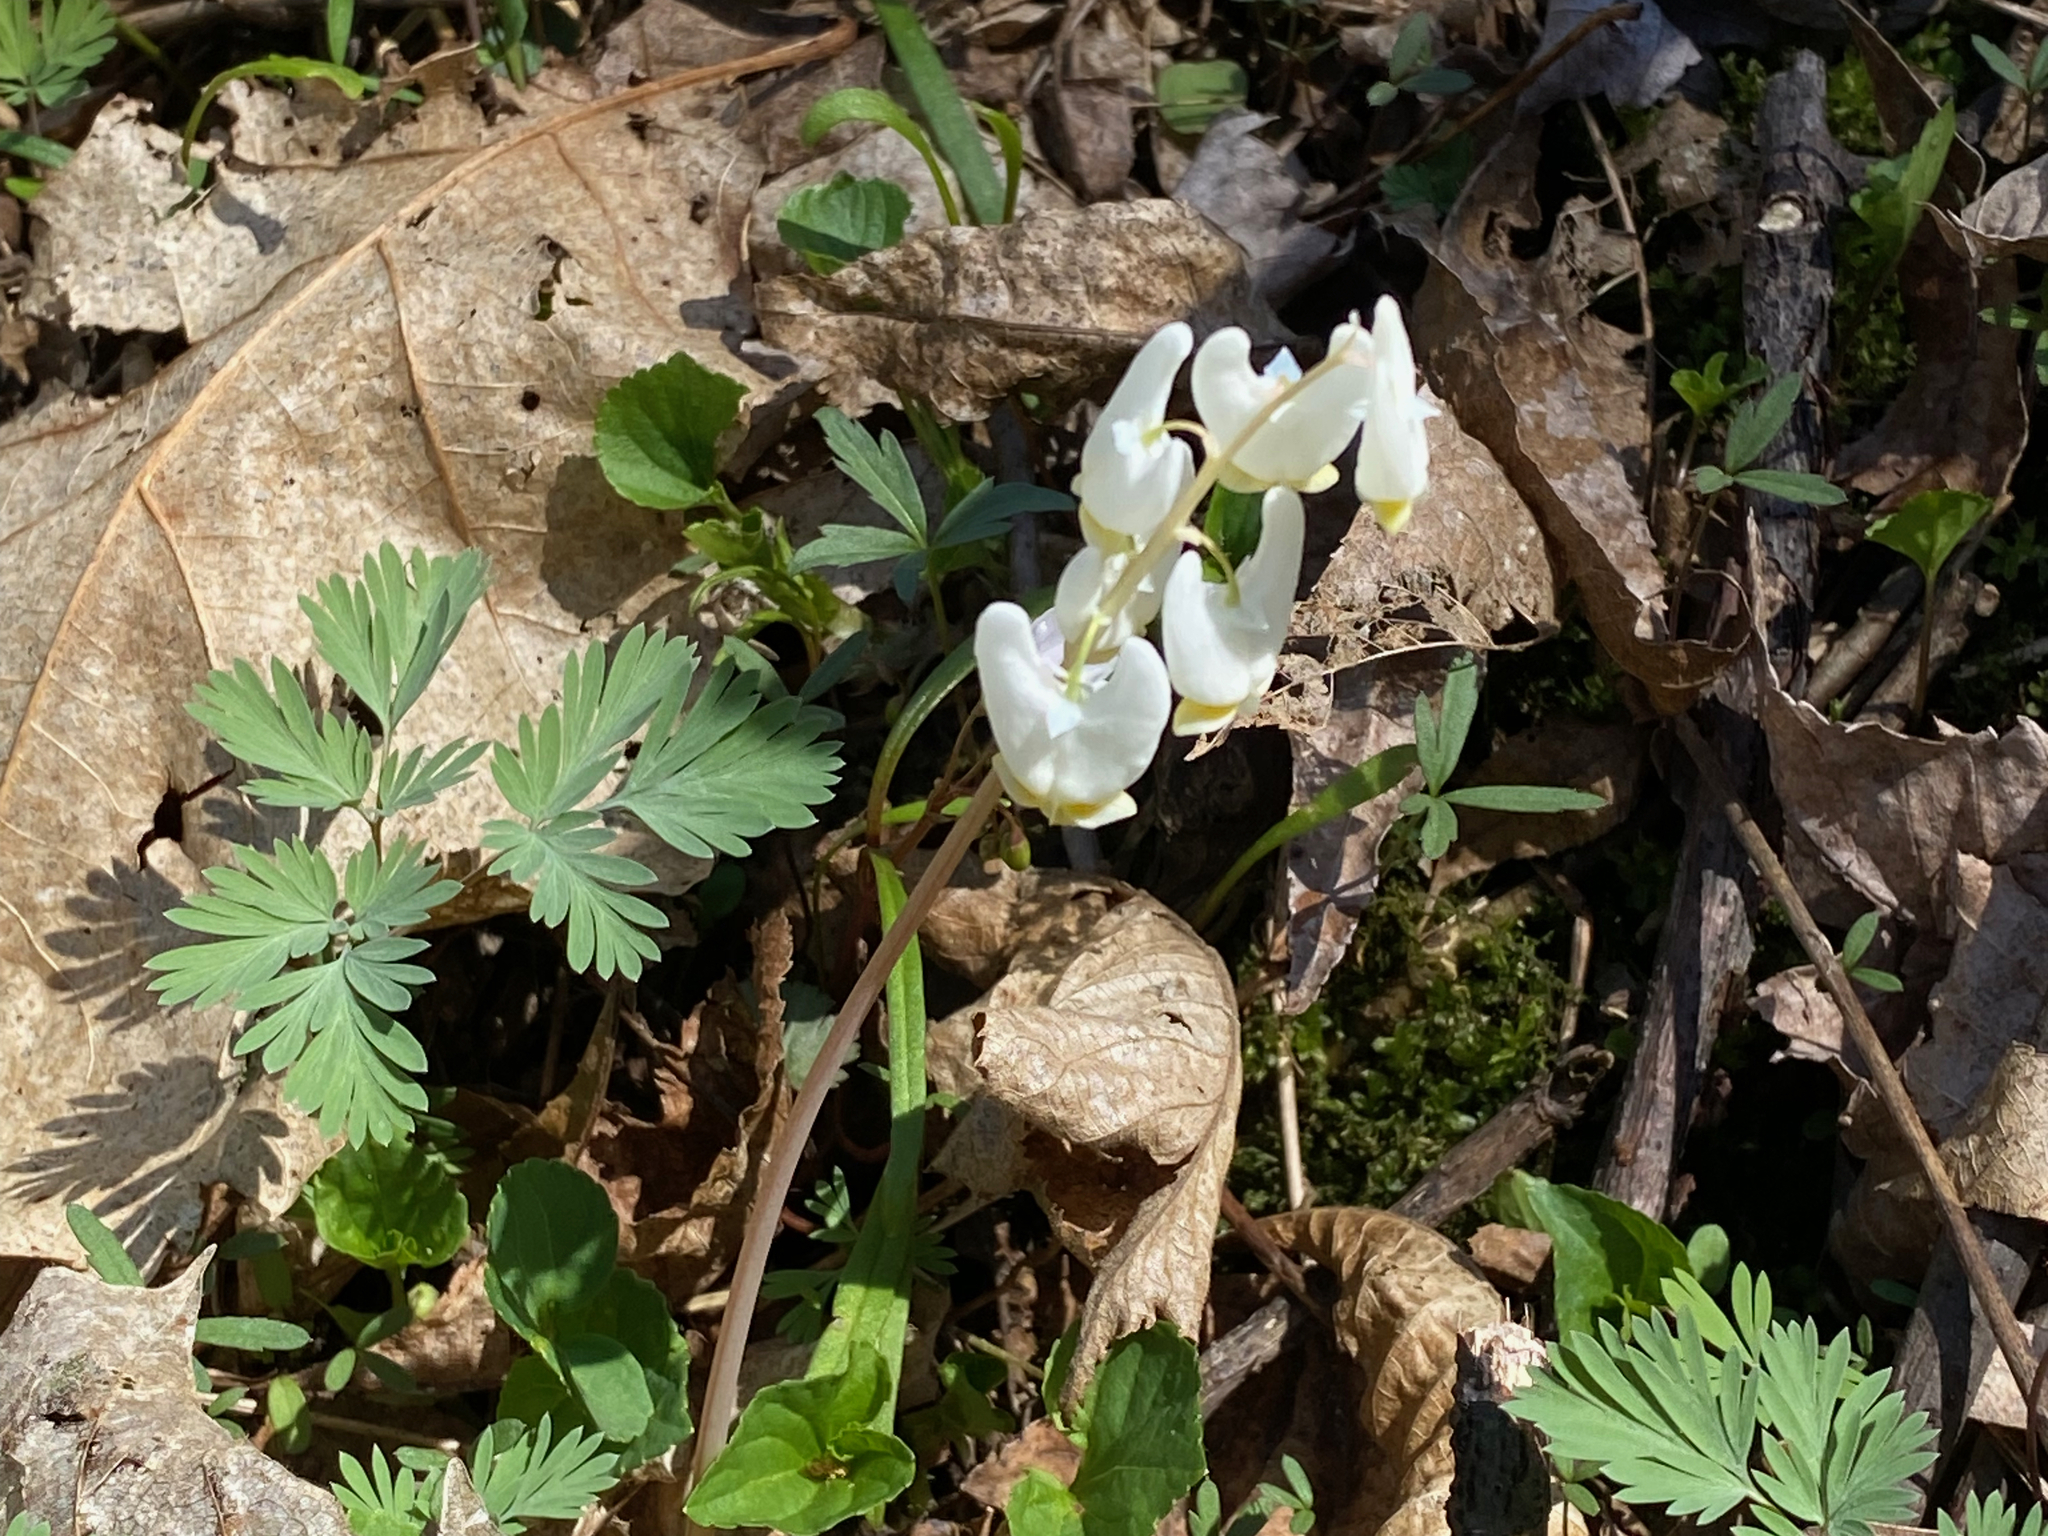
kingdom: Plantae
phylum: Tracheophyta
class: Magnoliopsida
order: Ranunculales
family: Papaveraceae
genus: Dicentra
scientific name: Dicentra cucullaria
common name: Dutchman's breeches
